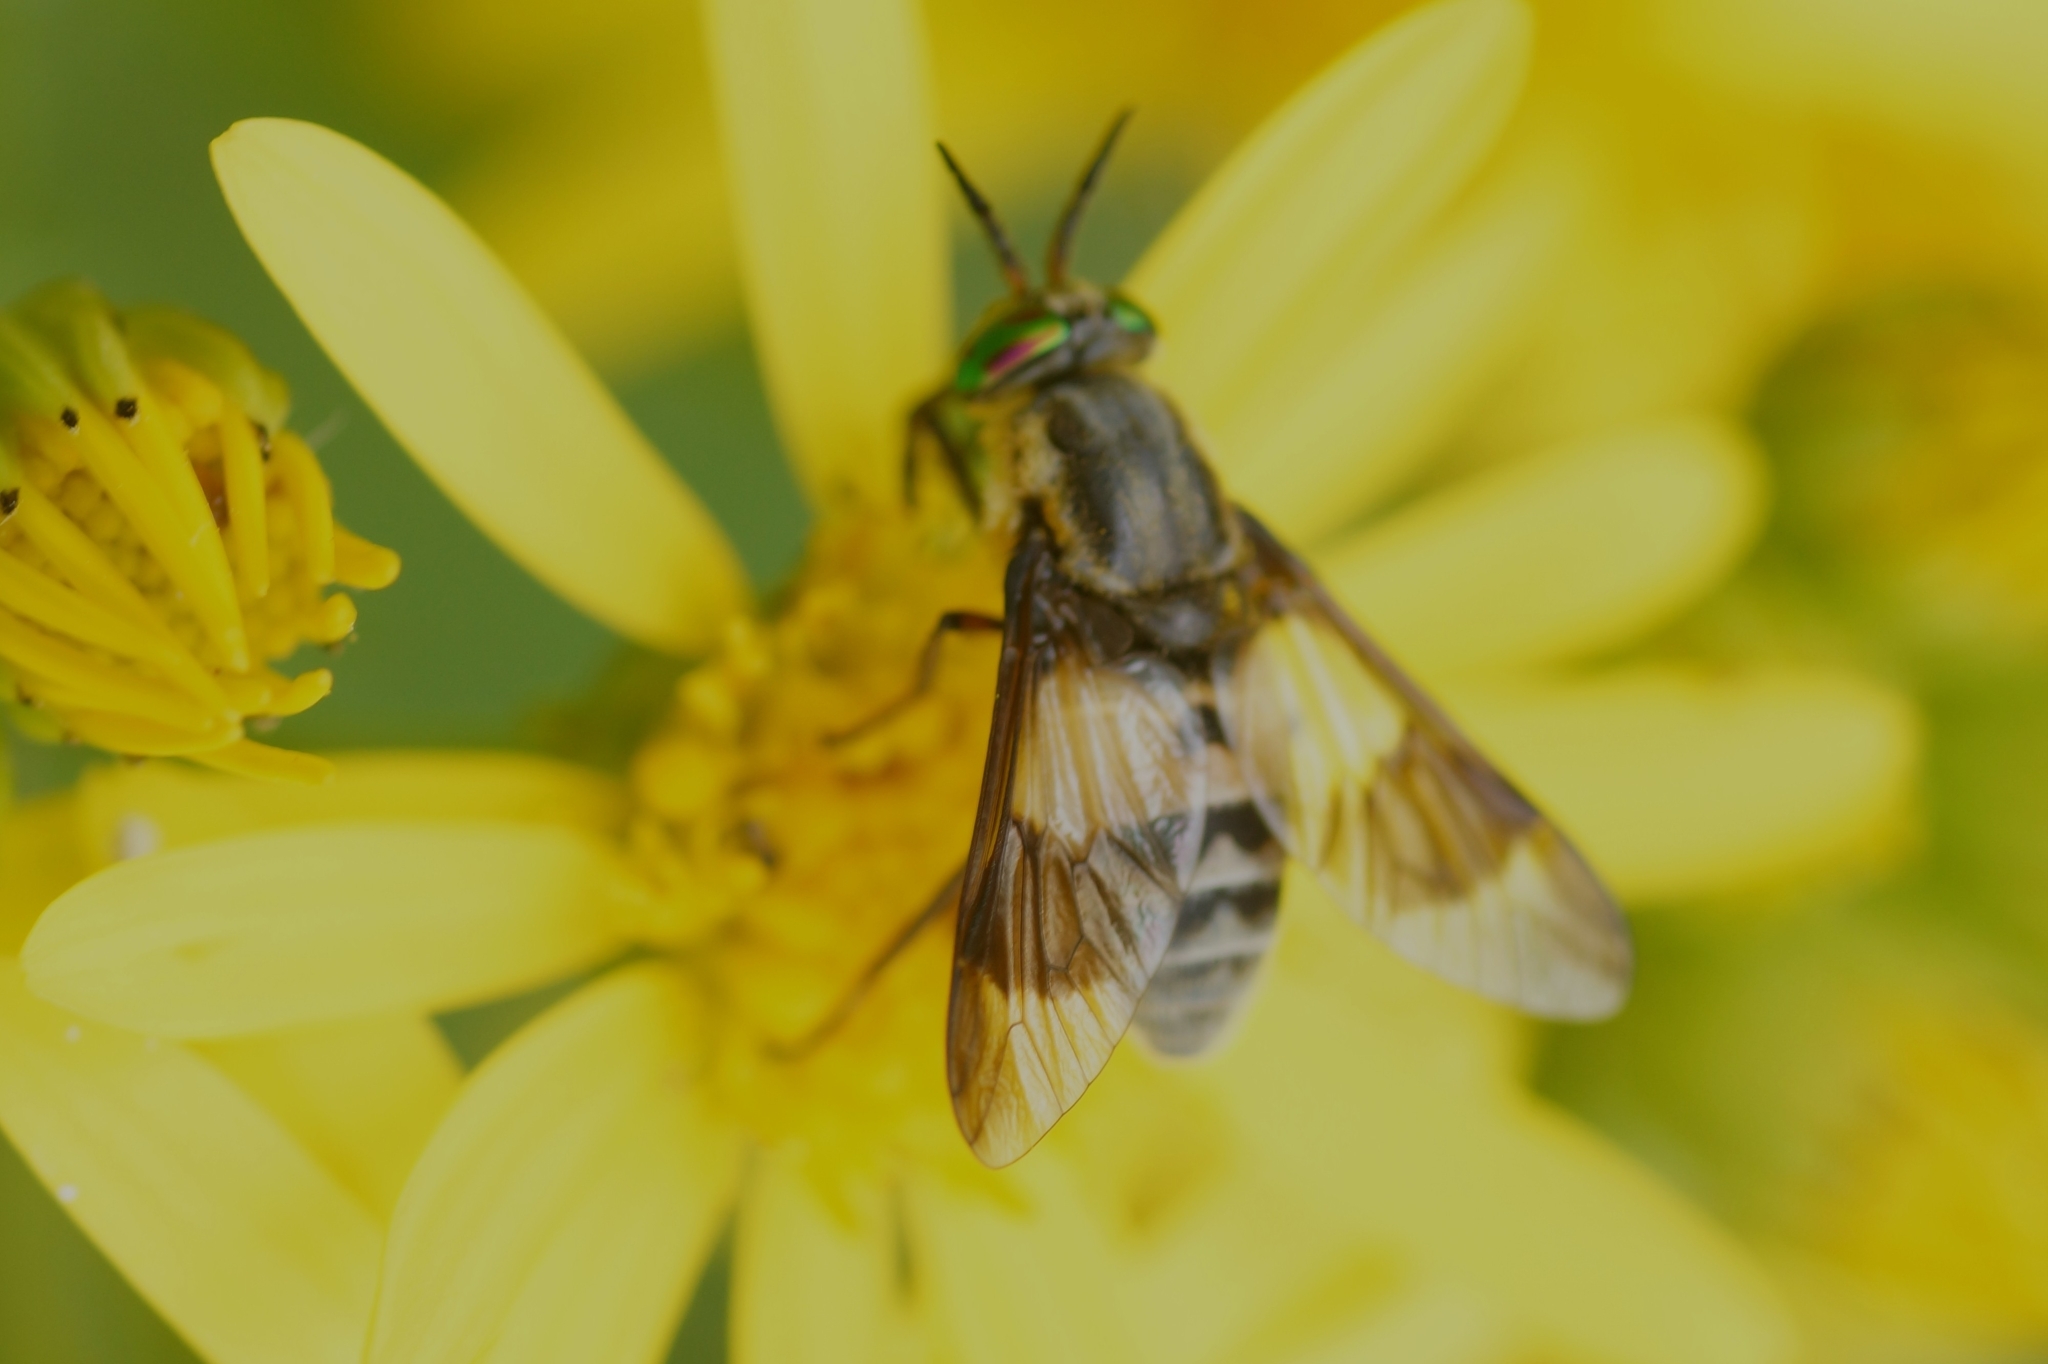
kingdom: Animalia
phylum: Arthropoda
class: Insecta
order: Diptera
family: Tabanidae
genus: Chrysops
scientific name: Chrysops viduatus
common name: Square-spot deerfly
